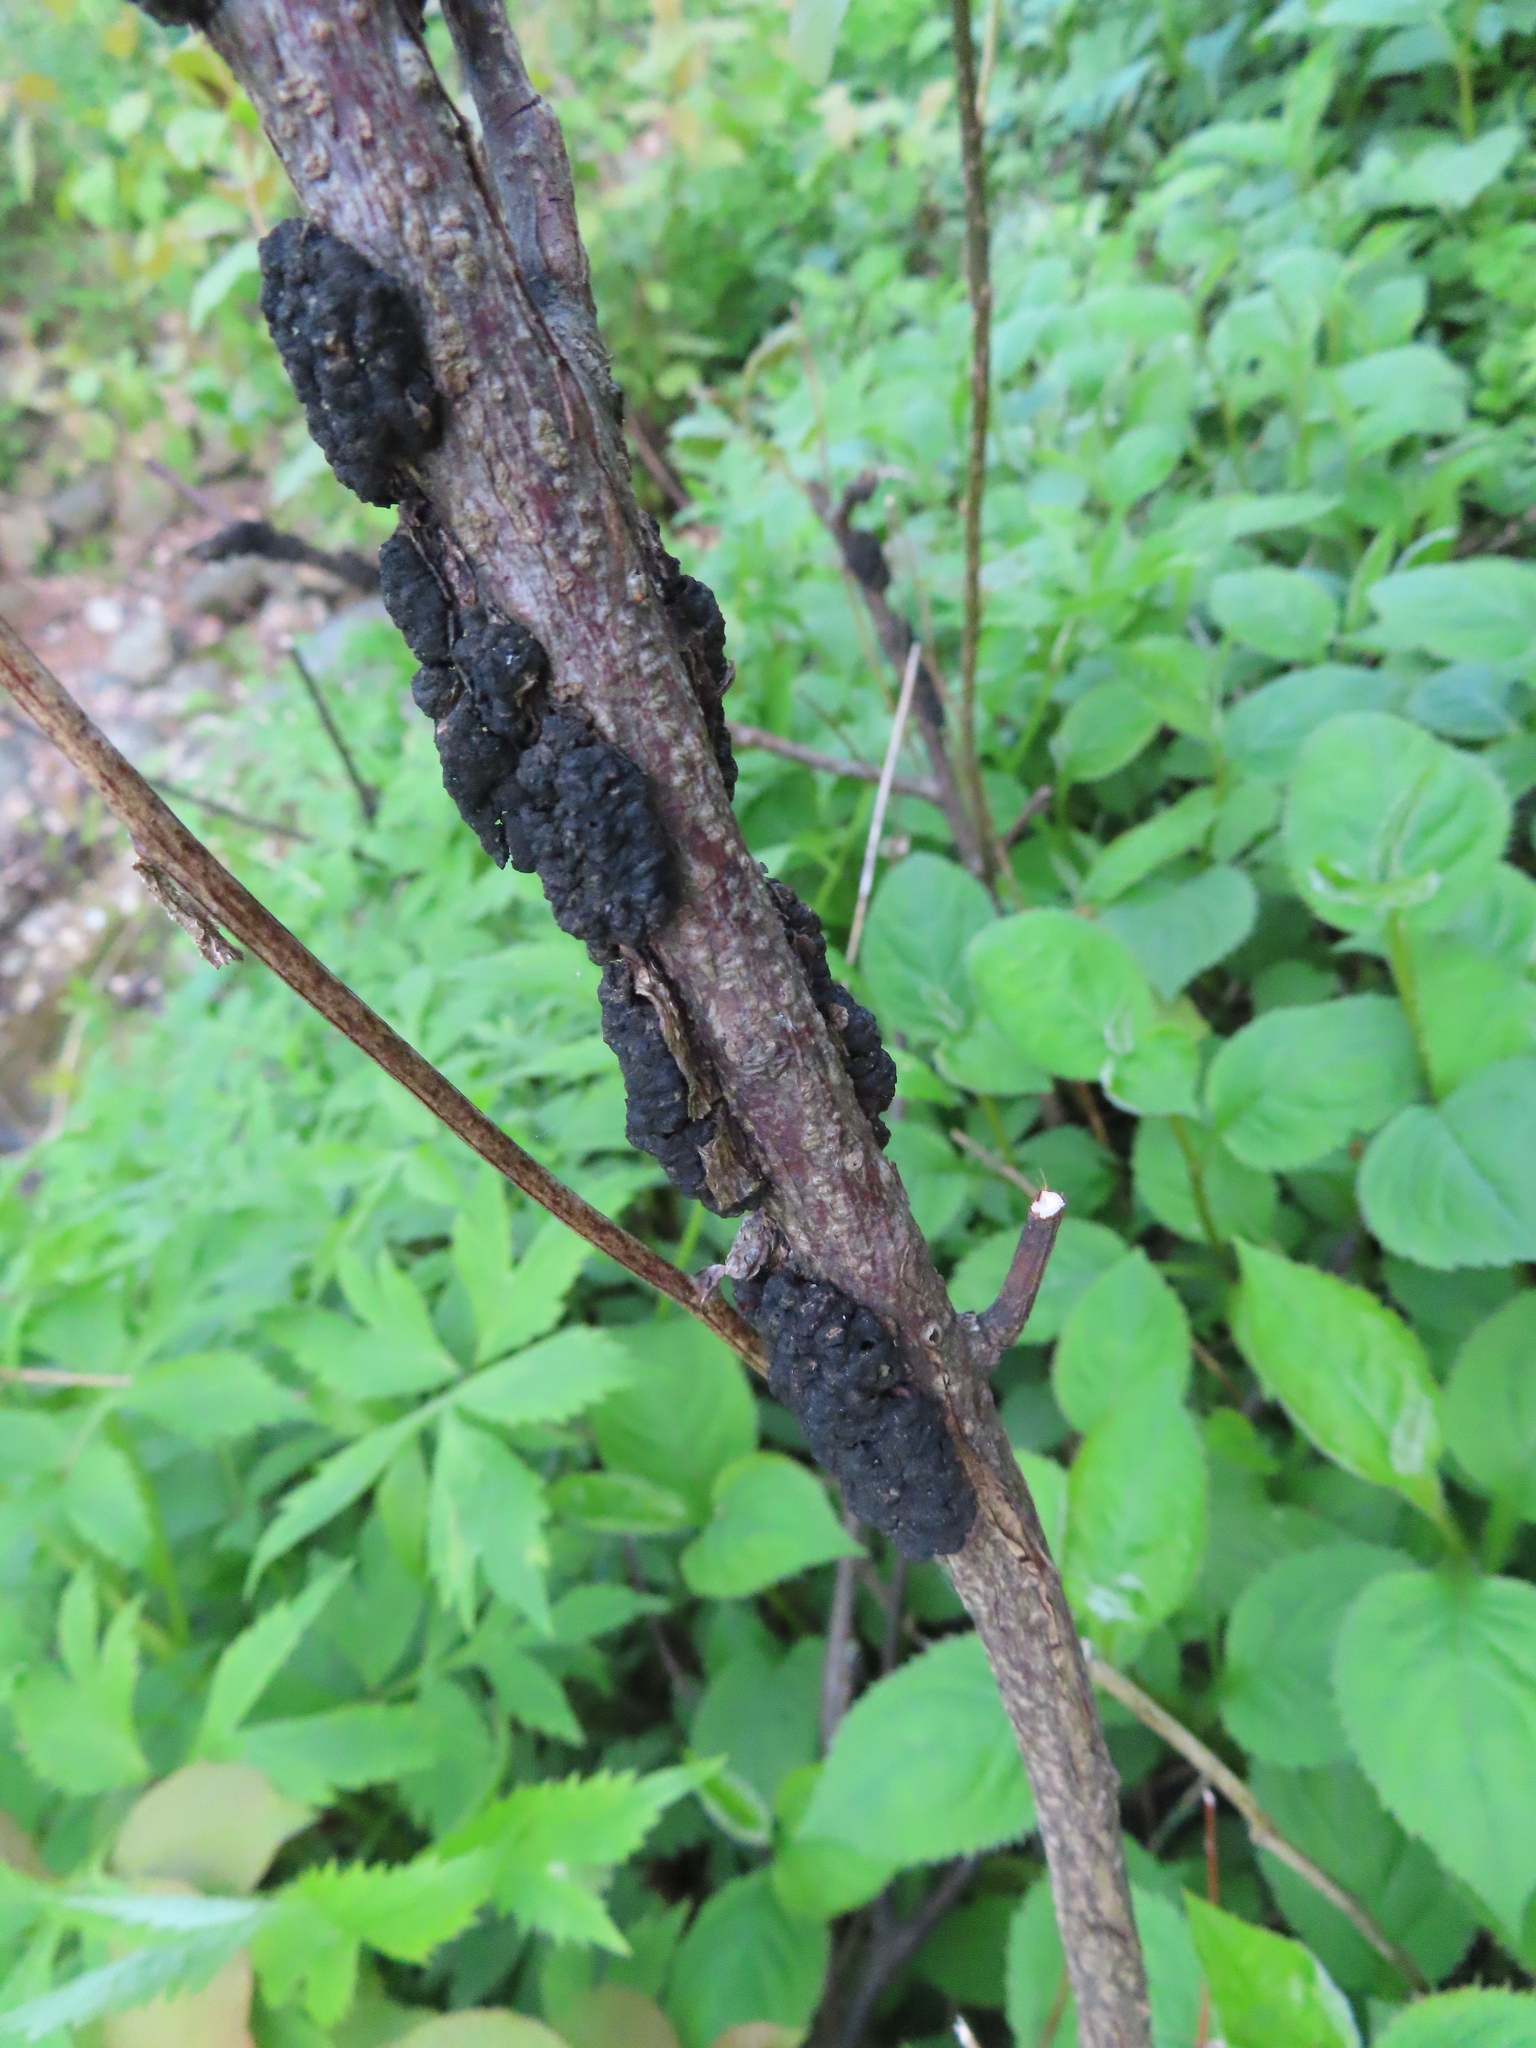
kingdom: Fungi
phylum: Ascomycota
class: Dothideomycetes
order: Venturiales
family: Venturiaceae
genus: Apiosporina
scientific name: Apiosporina morbosa
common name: Black knot
